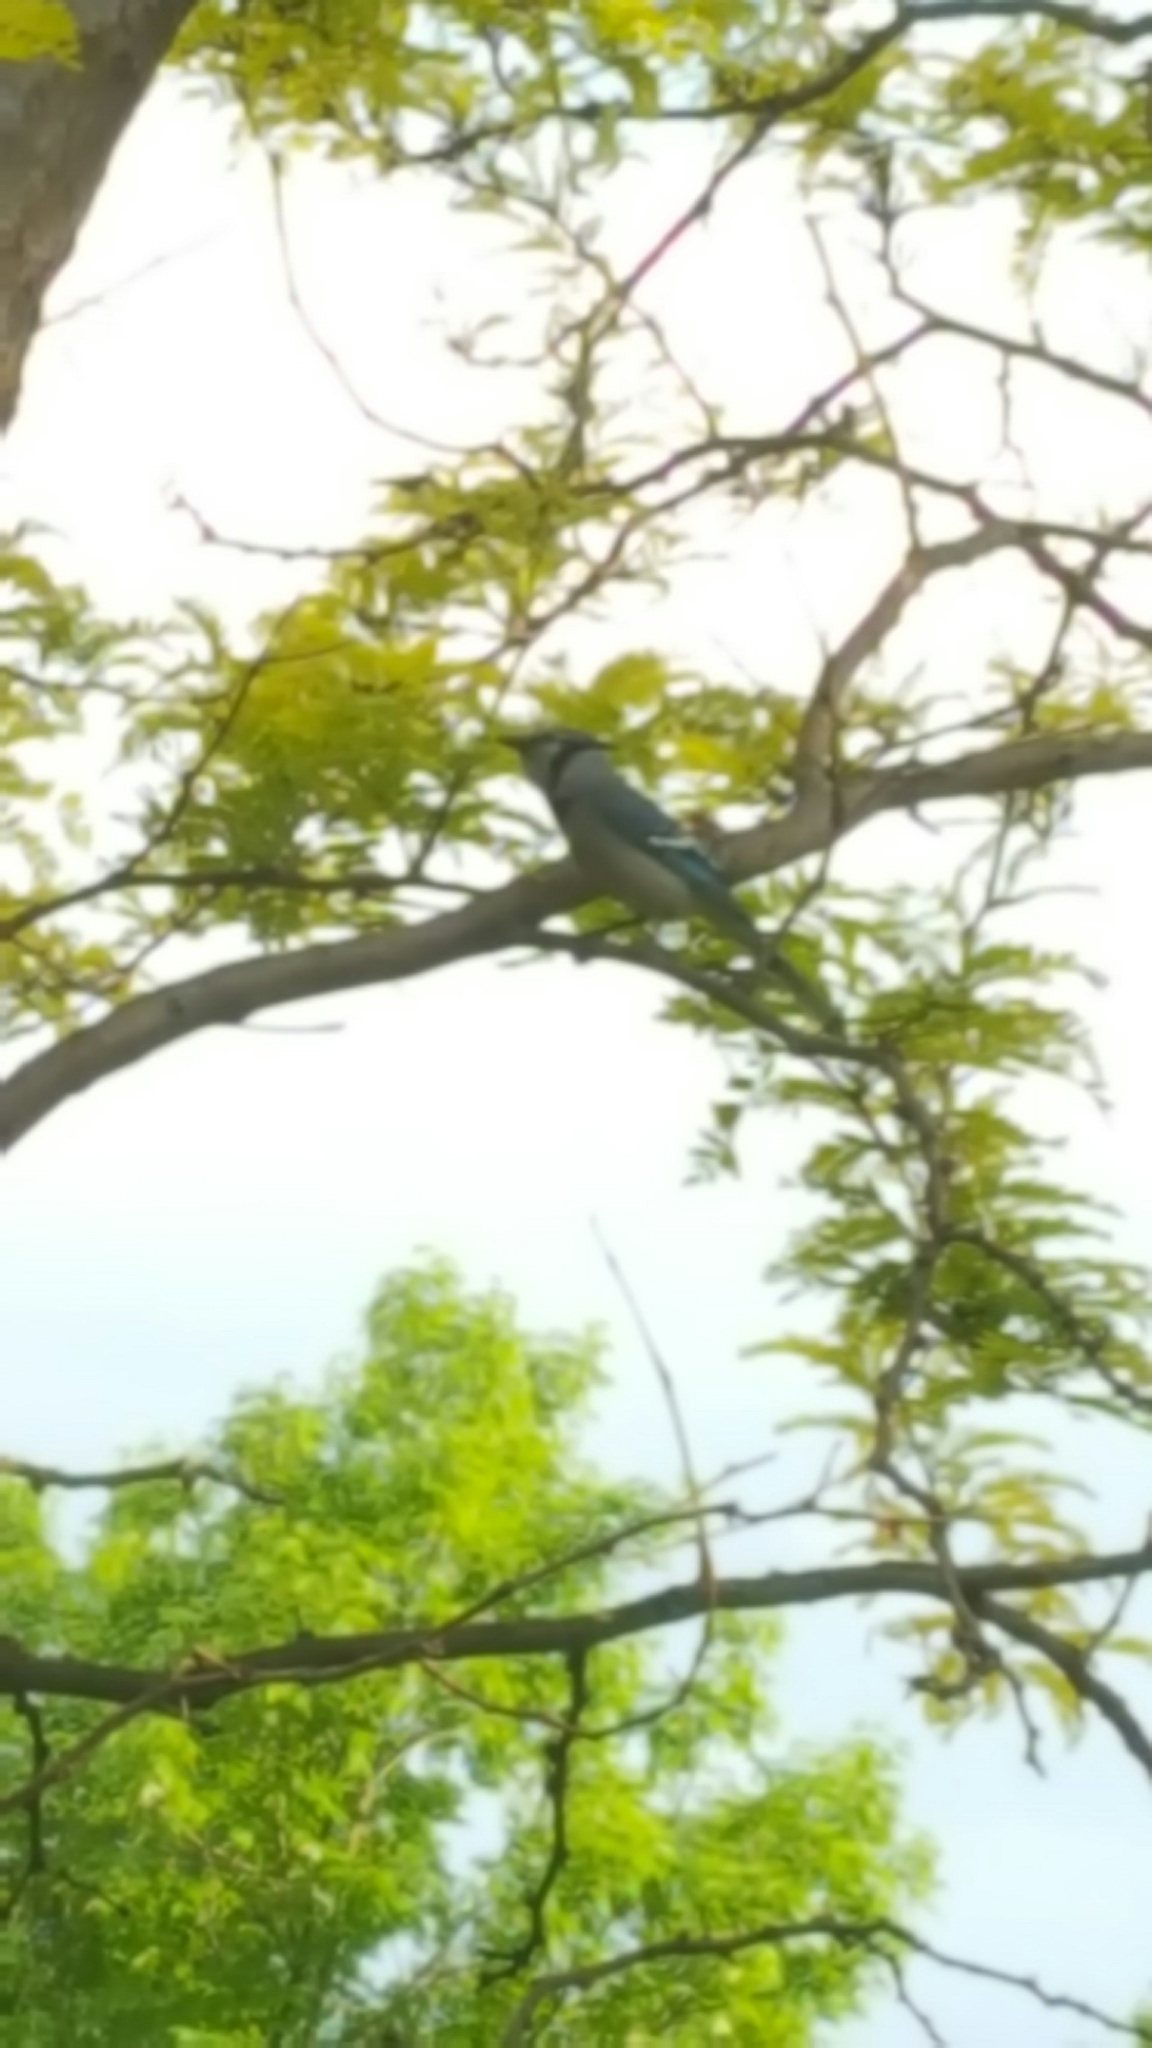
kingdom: Animalia
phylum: Chordata
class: Aves
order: Passeriformes
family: Corvidae
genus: Cyanocitta
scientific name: Cyanocitta cristata
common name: Blue jay
